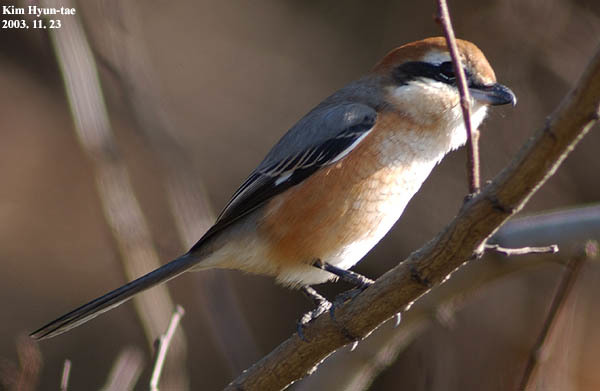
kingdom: Animalia
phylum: Chordata
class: Aves
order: Passeriformes
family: Laniidae
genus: Lanius
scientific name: Lanius bucephalus
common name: Bull-headed shrike
